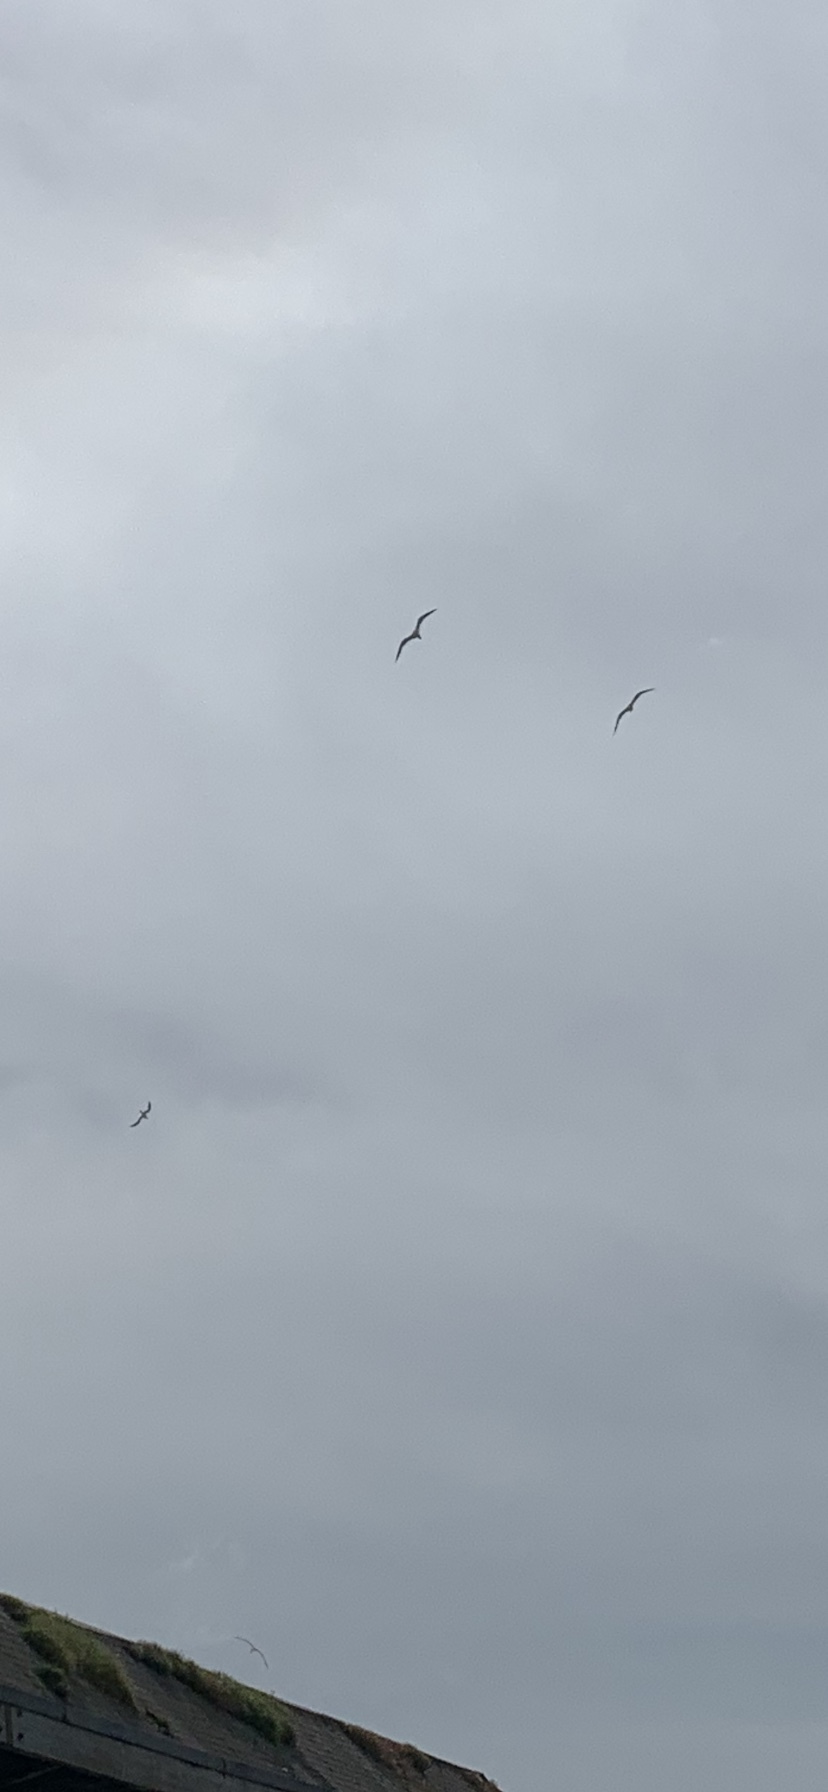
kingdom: Animalia
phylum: Chordata
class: Aves
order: Charadriiformes
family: Laridae
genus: Hydroprogne
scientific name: Hydroprogne caspia
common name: Caspian tern
